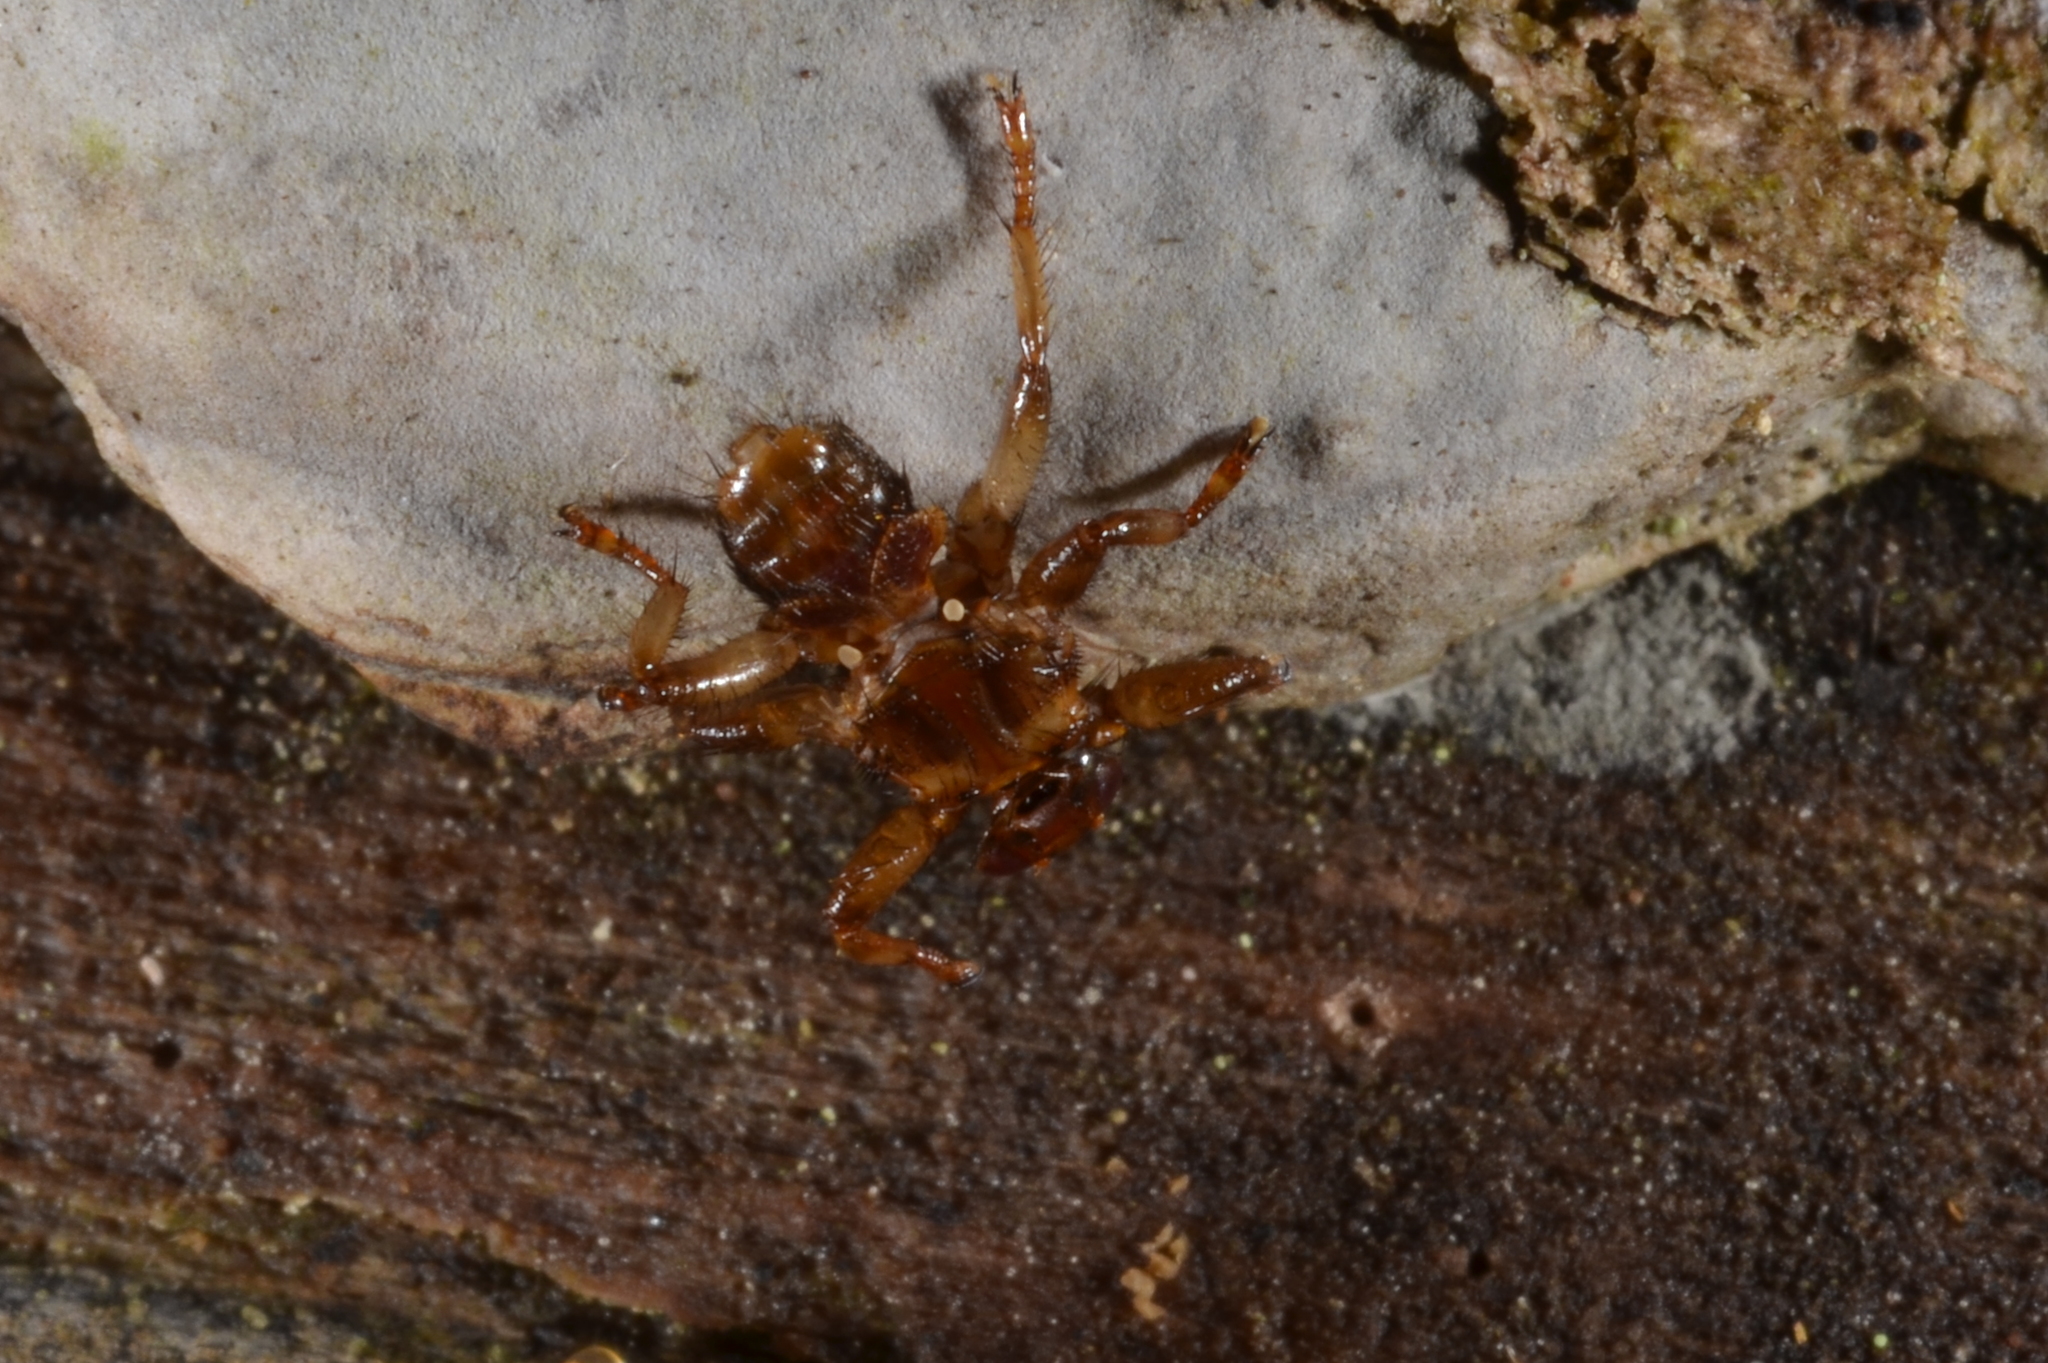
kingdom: Animalia
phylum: Arthropoda
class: Insecta
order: Diptera
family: Hippoboscidae
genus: Lipoptena
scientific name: Lipoptena cervi
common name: Deer ked
